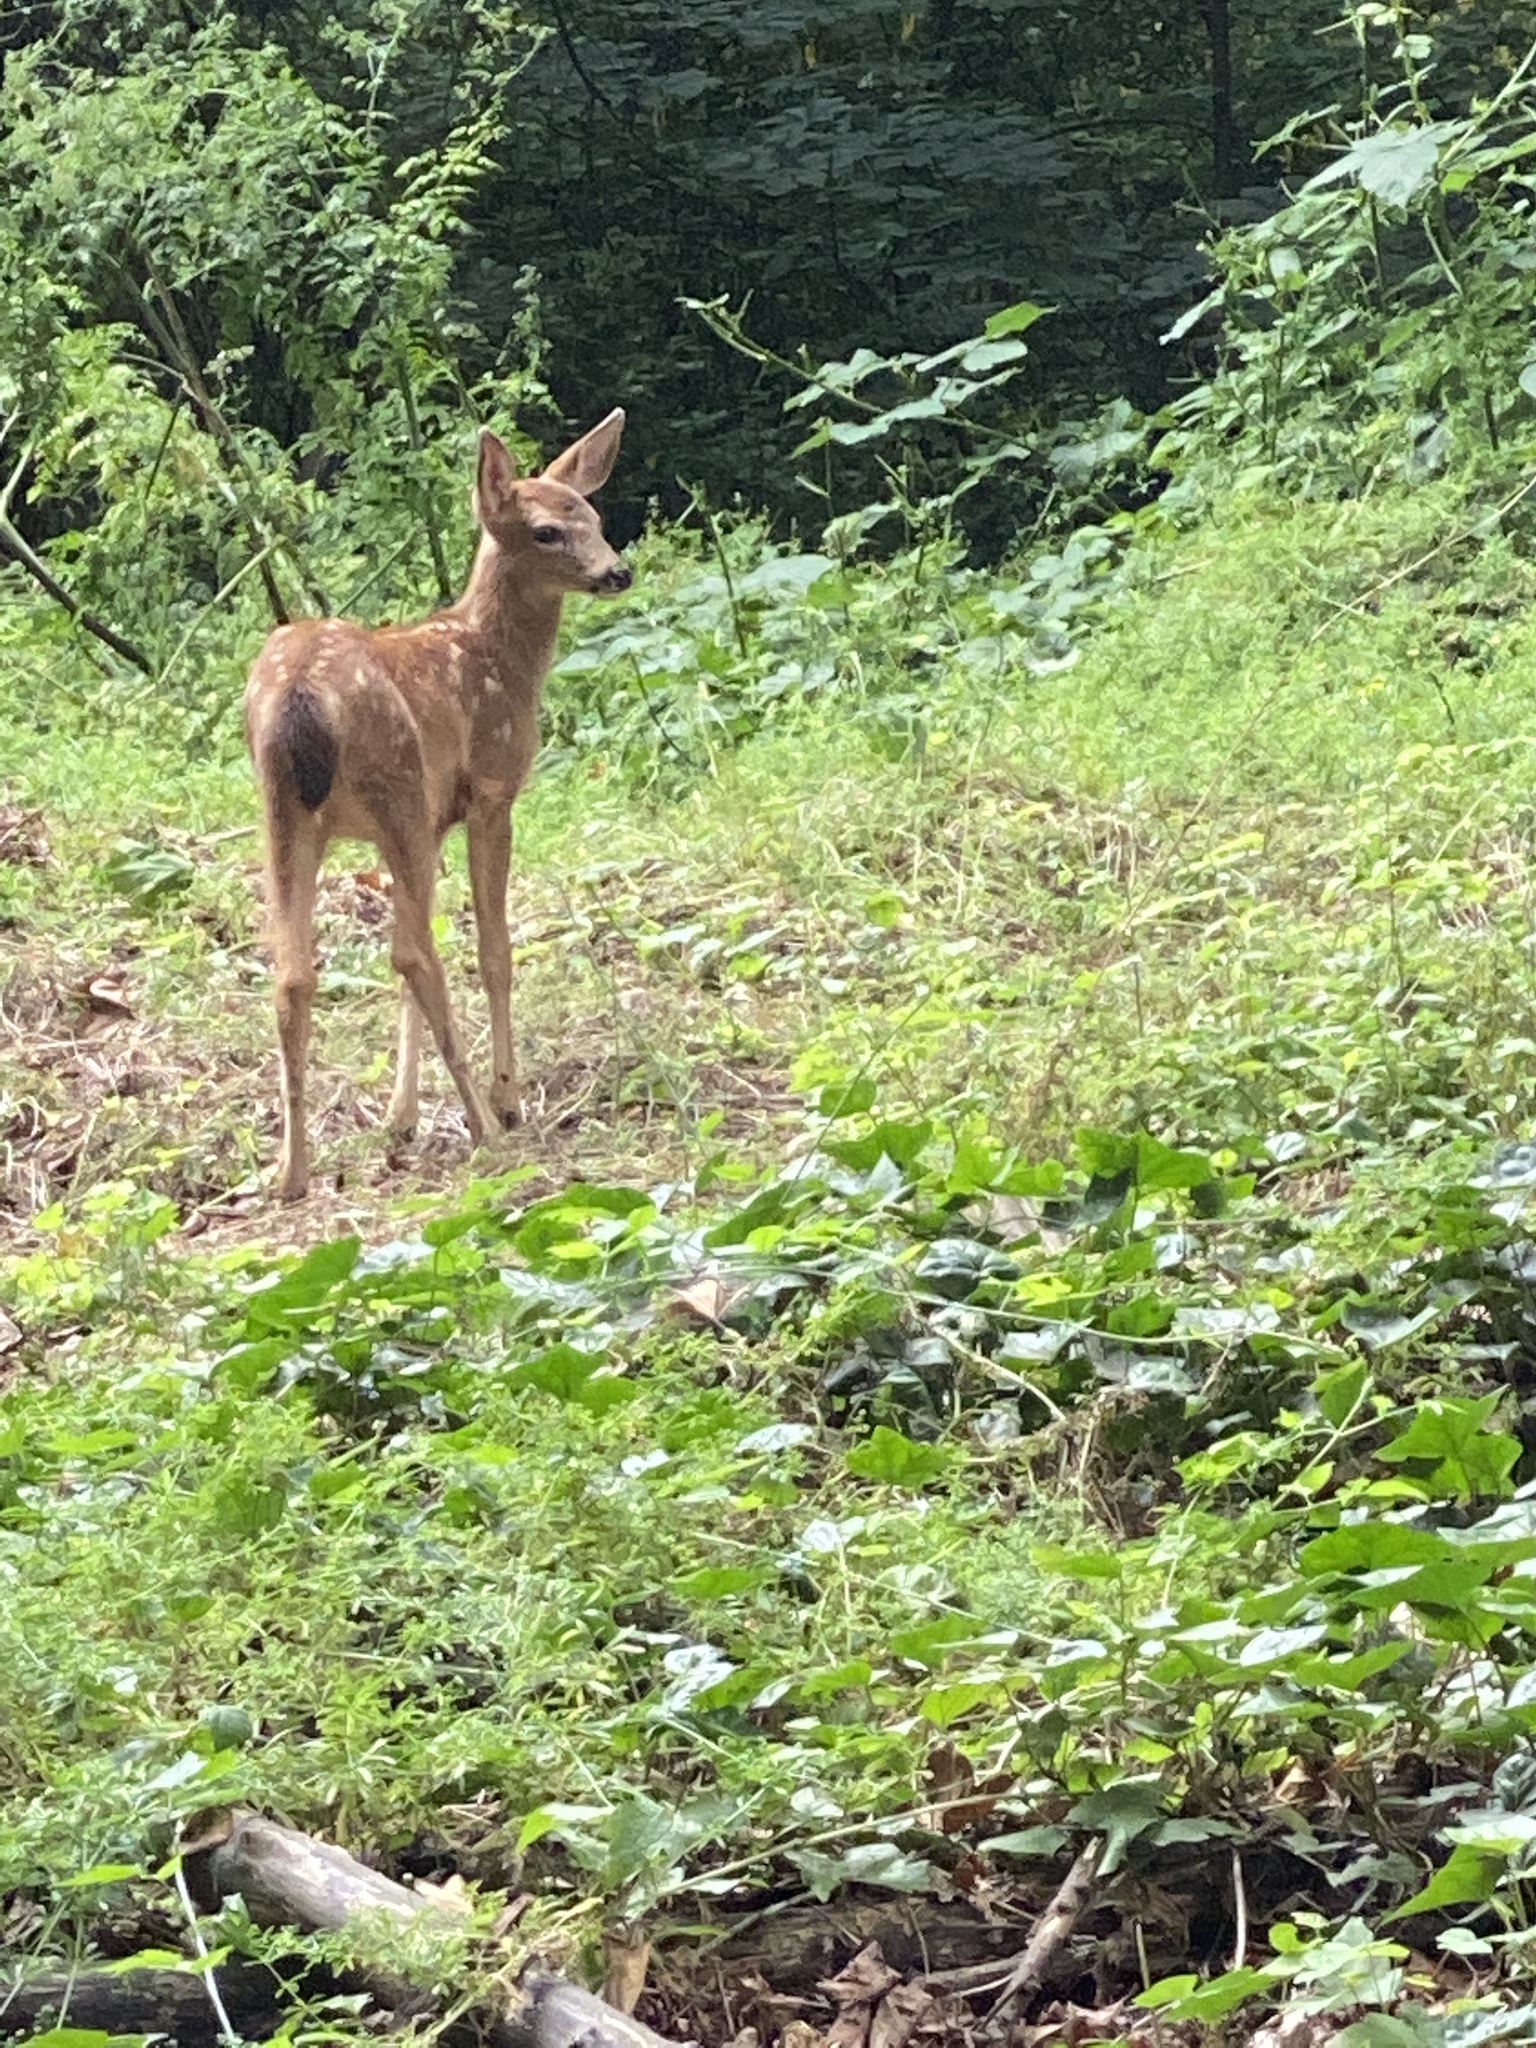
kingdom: Animalia
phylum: Chordata
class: Mammalia
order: Artiodactyla
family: Cervidae
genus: Odocoileus
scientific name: Odocoileus hemionus
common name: Mule deer
